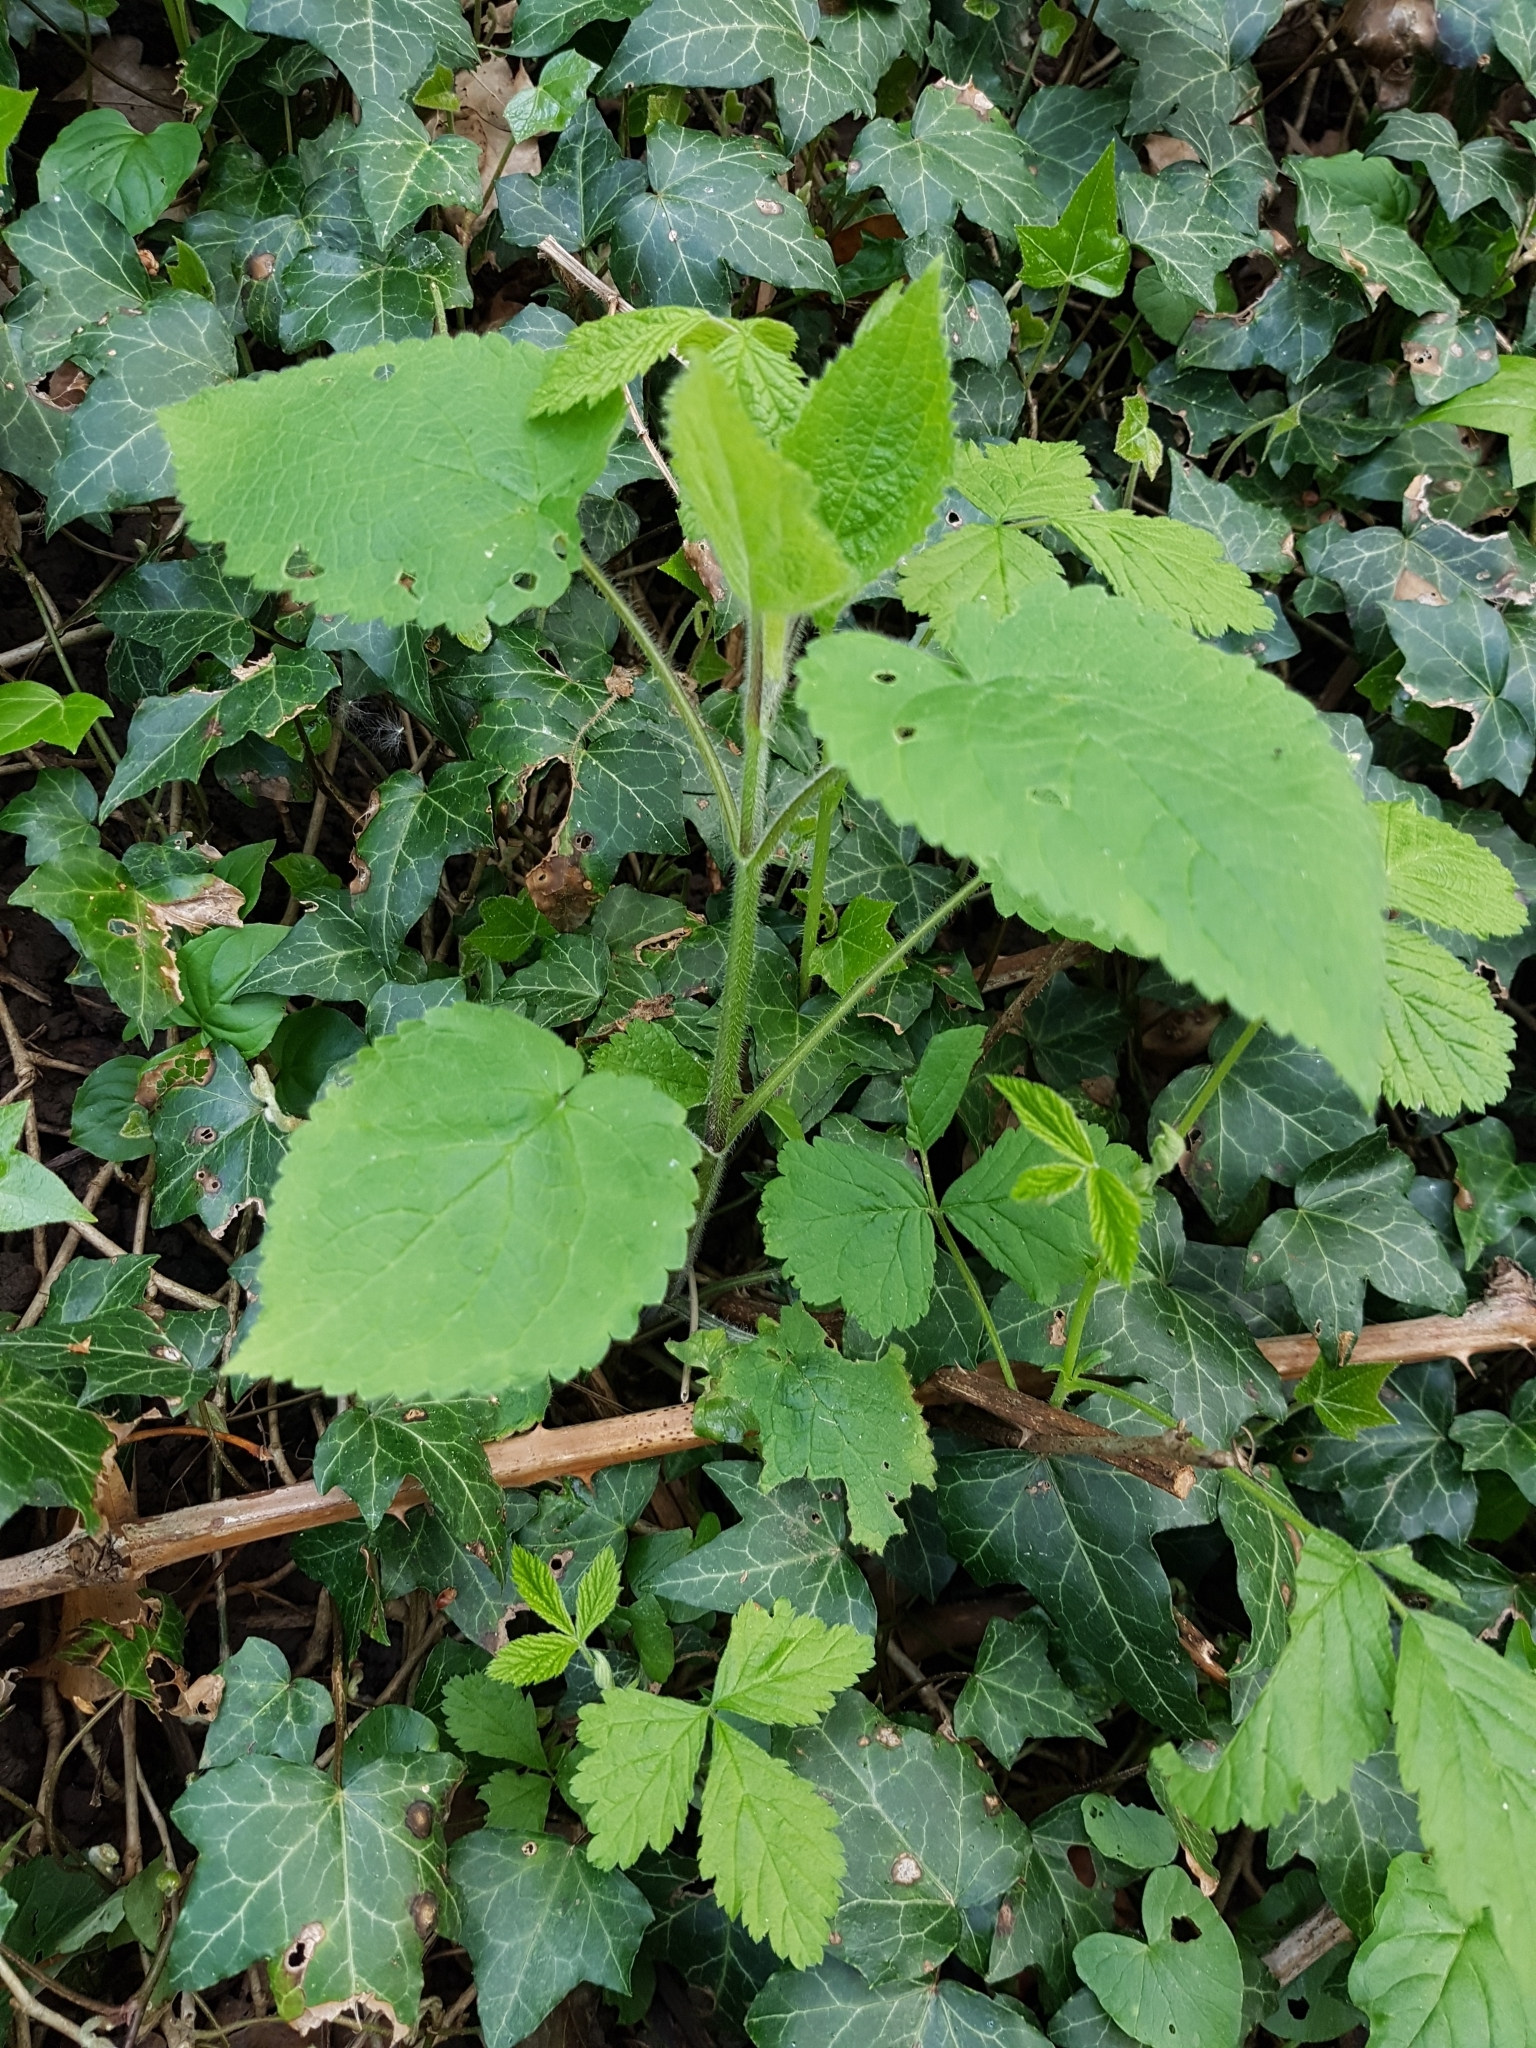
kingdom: Plantae
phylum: Tracheophyta
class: Magnoliopsida
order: Lamiales
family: Lamiaceae
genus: Stachys
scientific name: Stachys sylvatica
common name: Hedge woundwort
